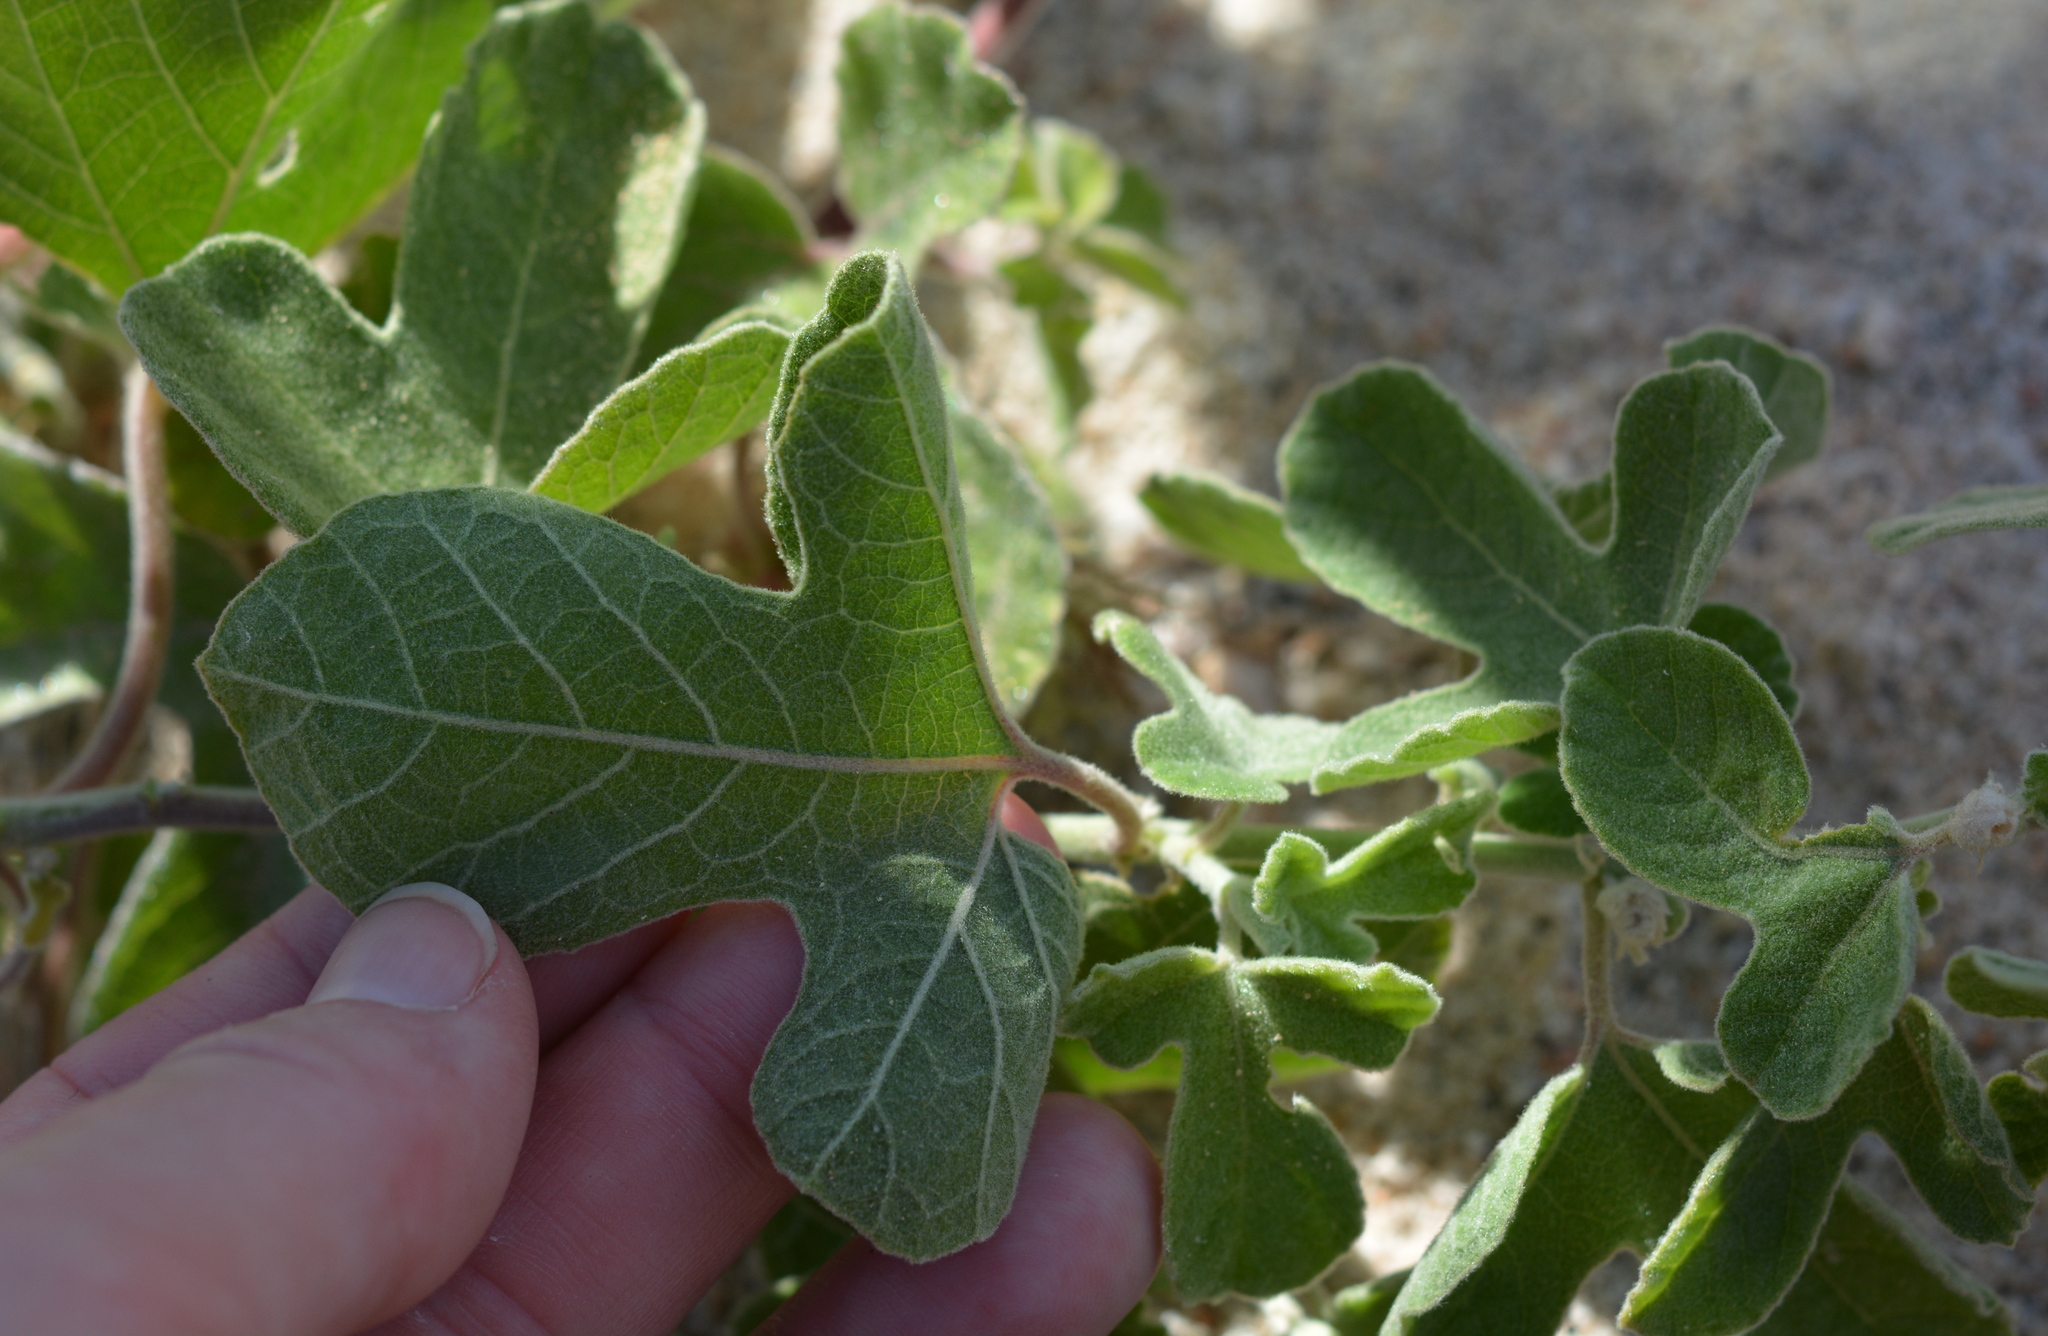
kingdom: Plantae
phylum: Tracheophyta
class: Magnoliopsida
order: Malpighiales
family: Passifloraceae
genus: Passiflora
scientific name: Passiflora arida
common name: Desert passionflower
